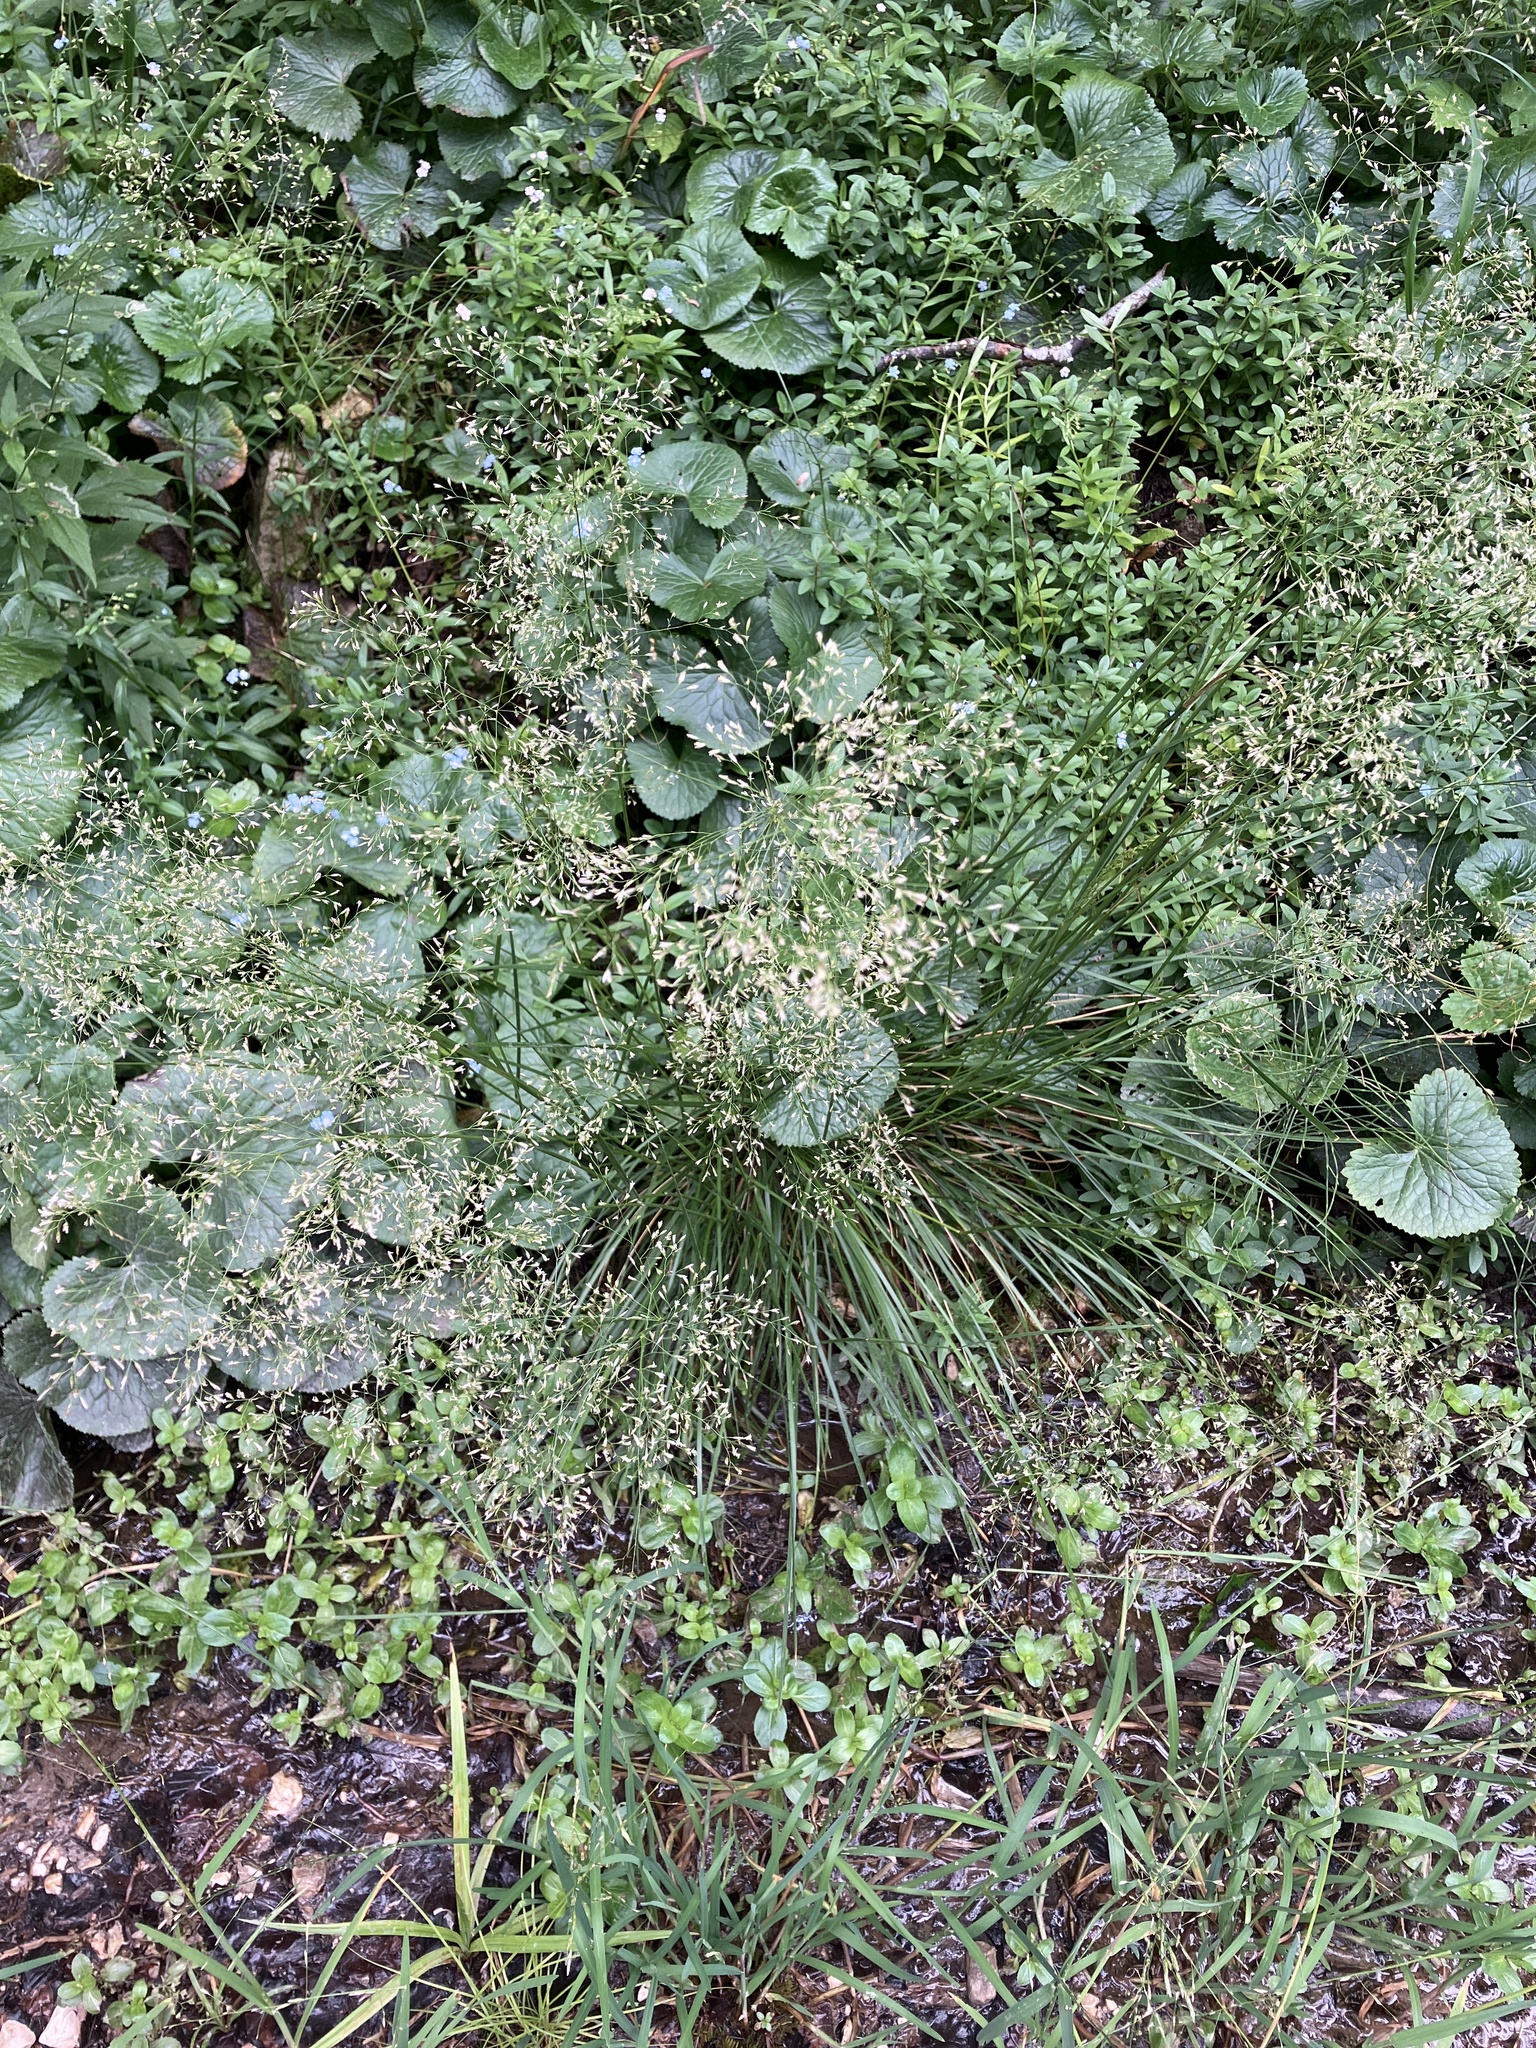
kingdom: Plantae
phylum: Tracheophyta
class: Liliopsida
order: Poales
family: Poaceae
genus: Deschampsia
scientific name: Deschampsia cespitosa
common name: Tufted hair-grass
